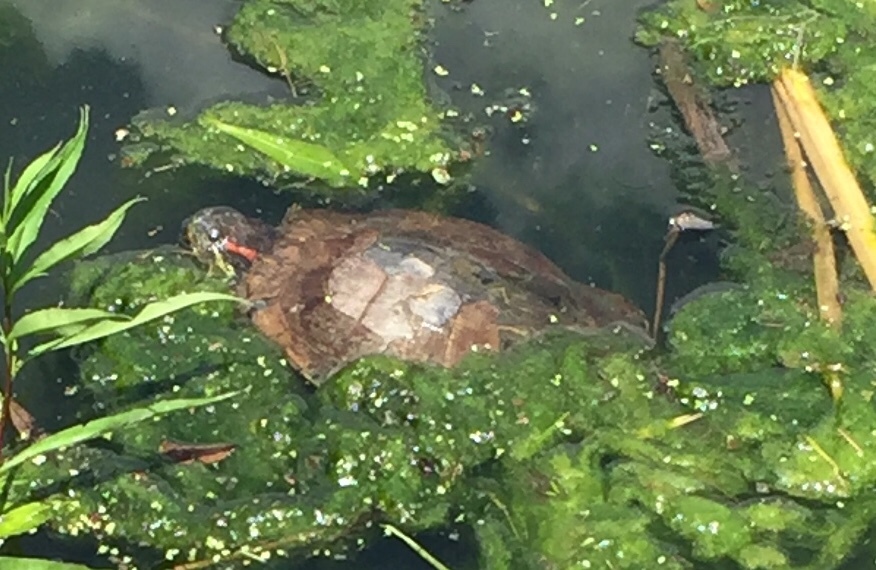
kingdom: Animalia
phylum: Chordata
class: Testudines
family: Emydidae
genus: Trachemys
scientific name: Trachemys scripta
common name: Slider
